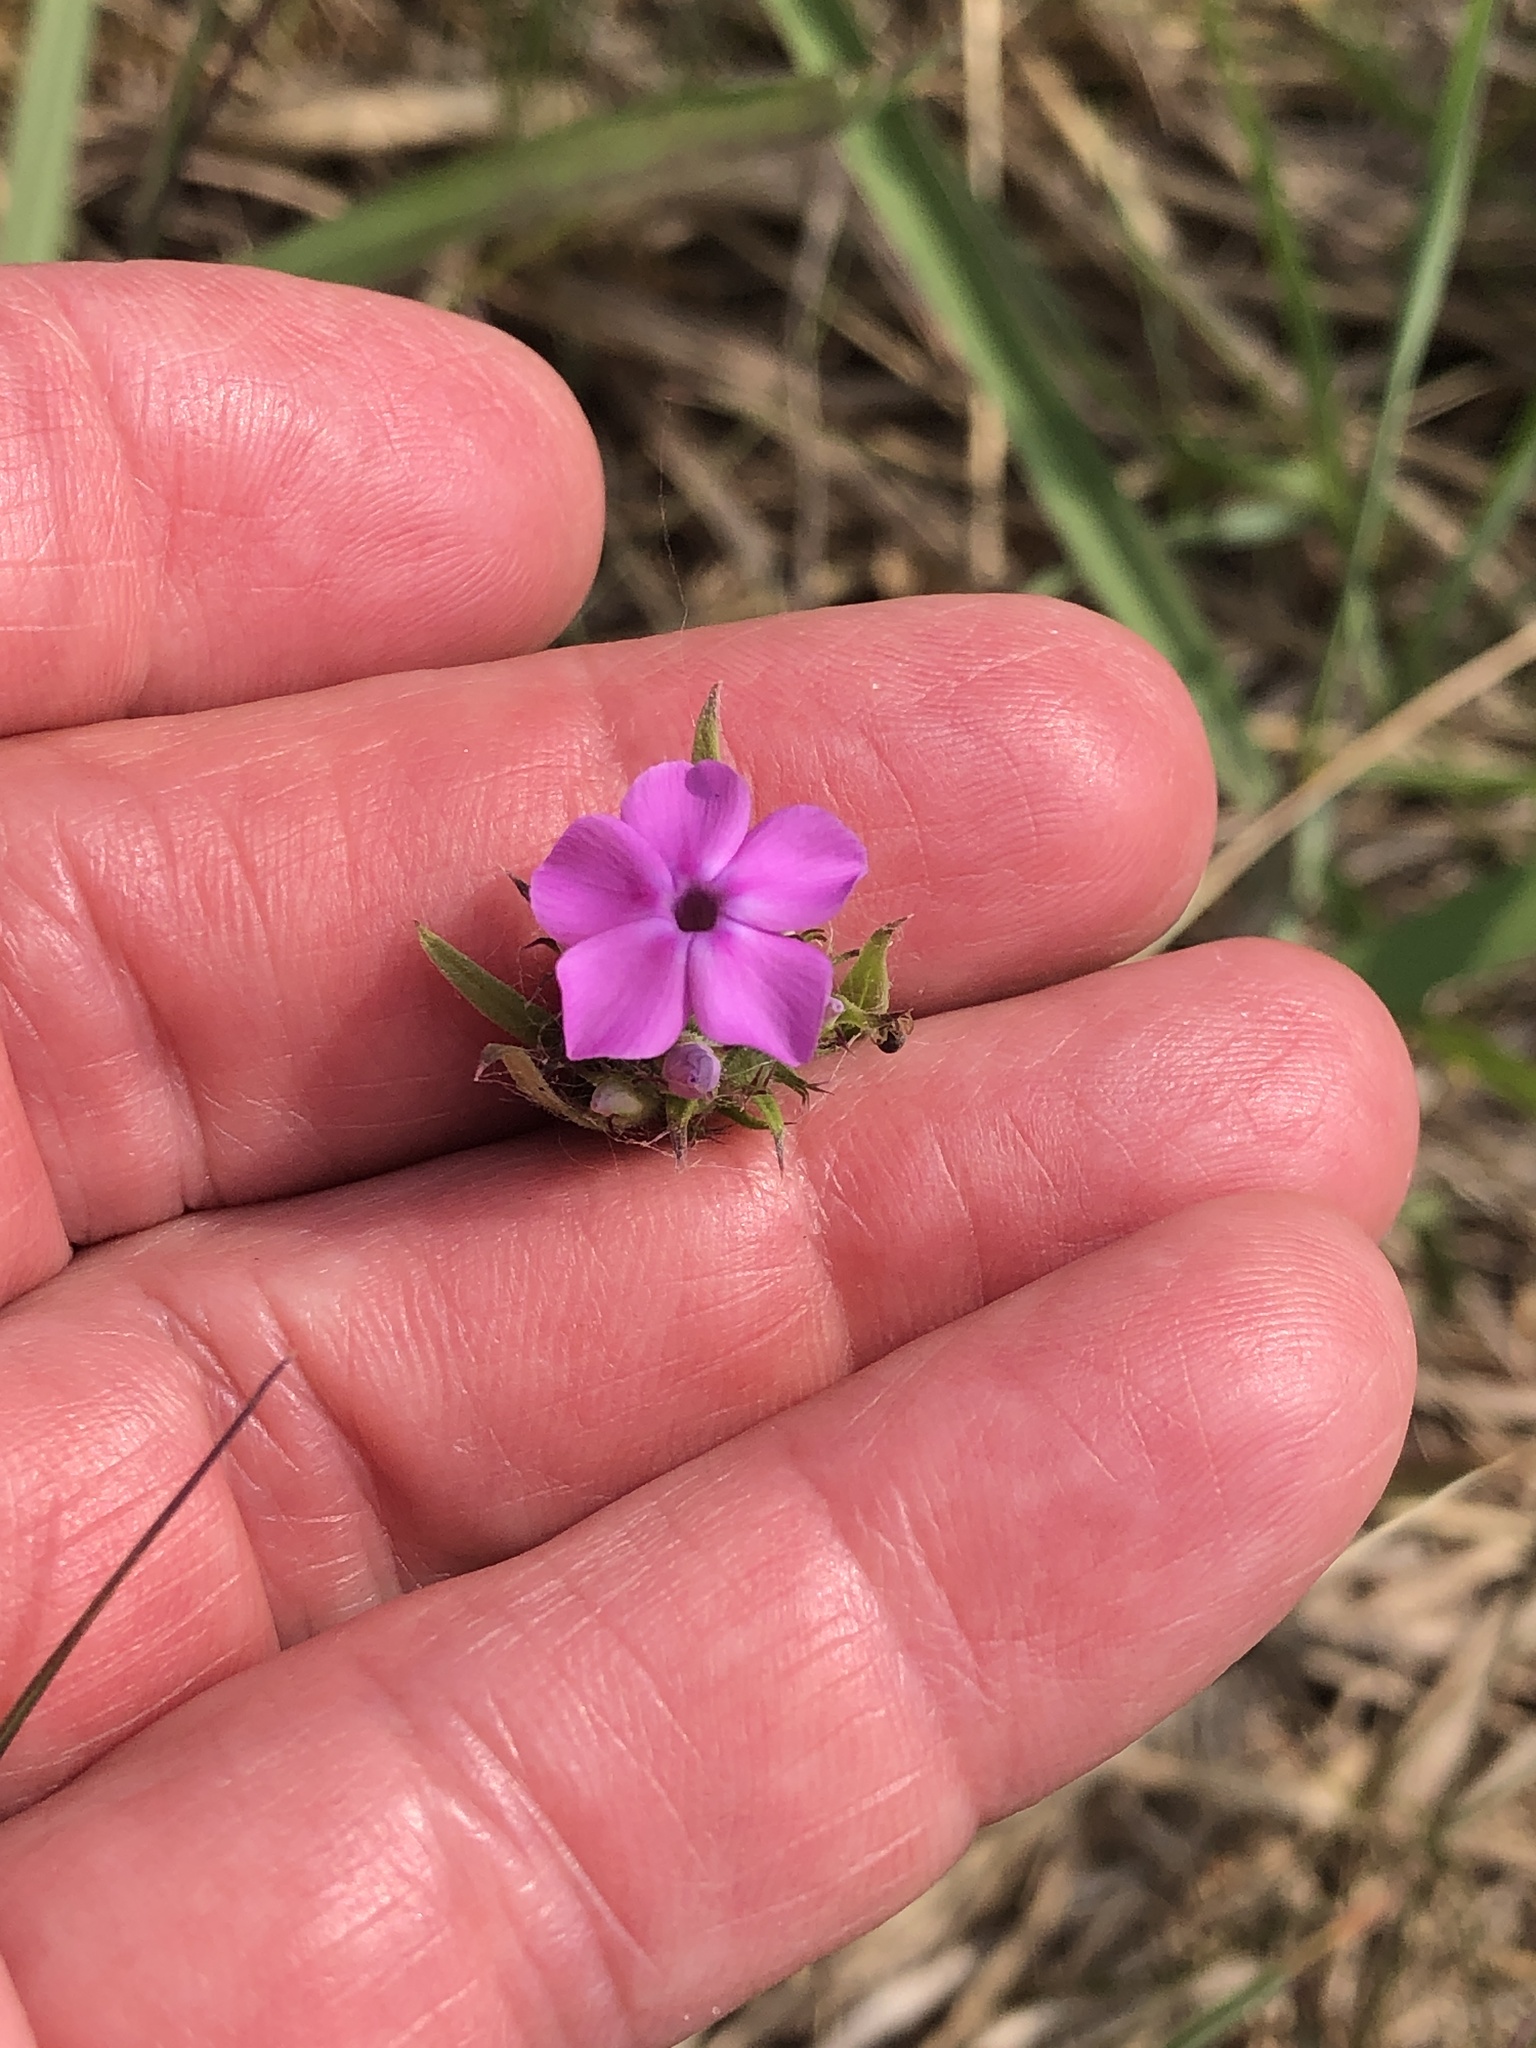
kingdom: Plantae
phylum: Tracheophyta
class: Magnoliopsida
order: Ericales
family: Polemoniaceae
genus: Phlox
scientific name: Phlox pilosa
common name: Prairie phlox
